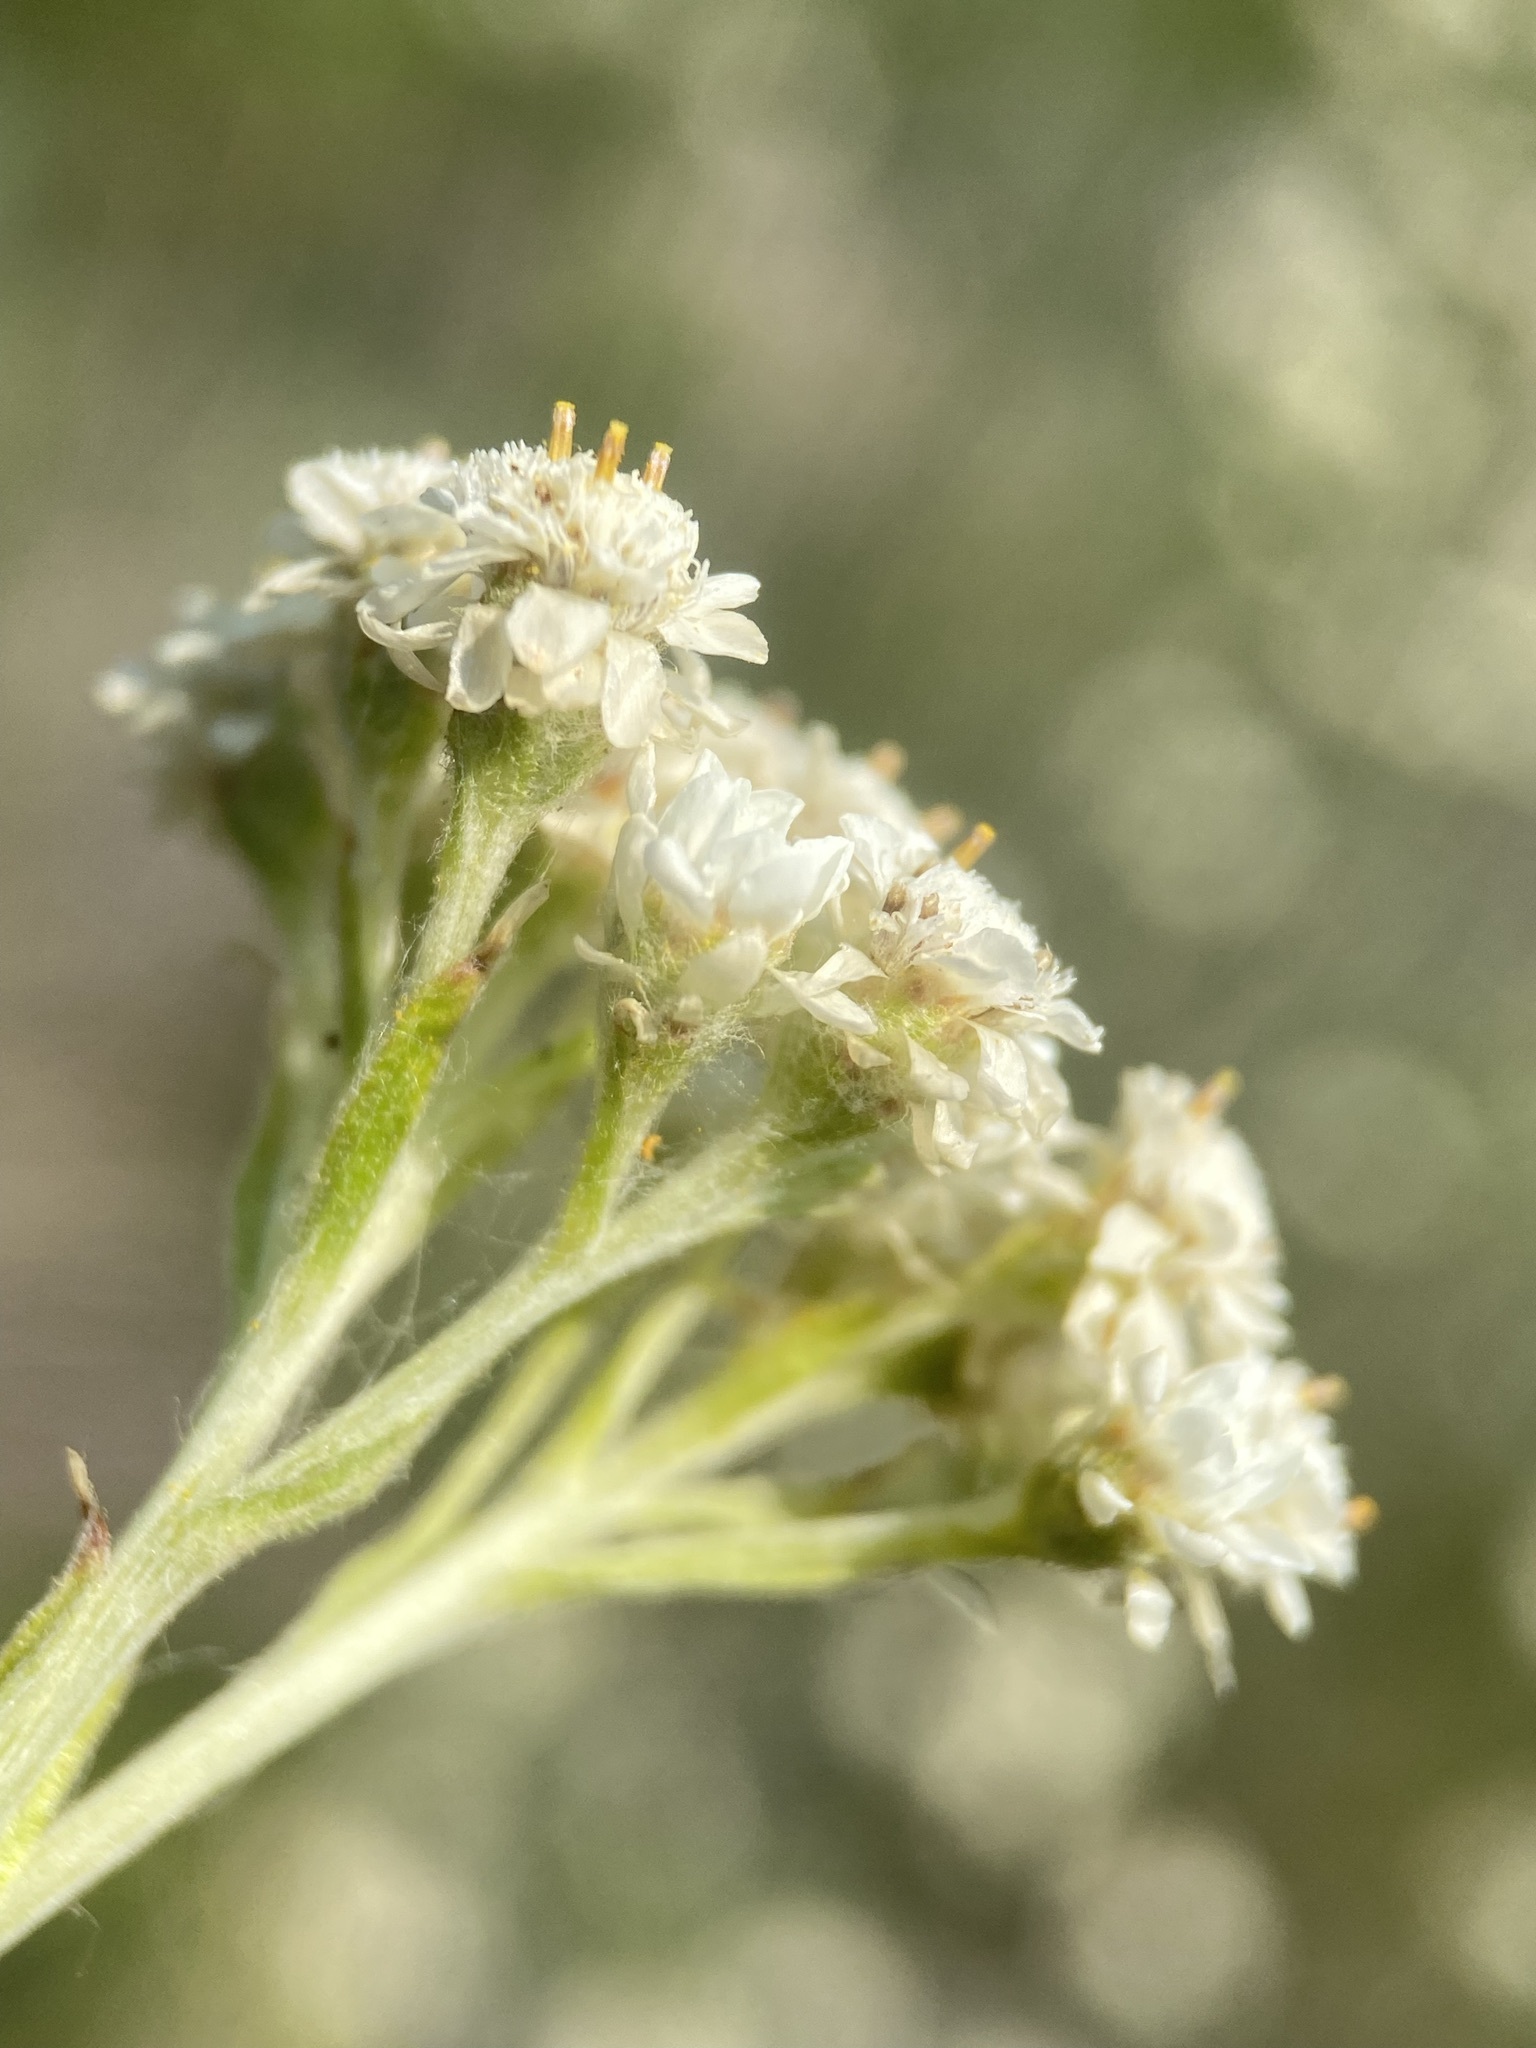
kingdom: Plantae
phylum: Tracheophyta
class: Magnoliopsida
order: Asterales
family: Asteraceae
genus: Antennaria
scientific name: Antennaria microphylla
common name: Littleleaf pussytoes
